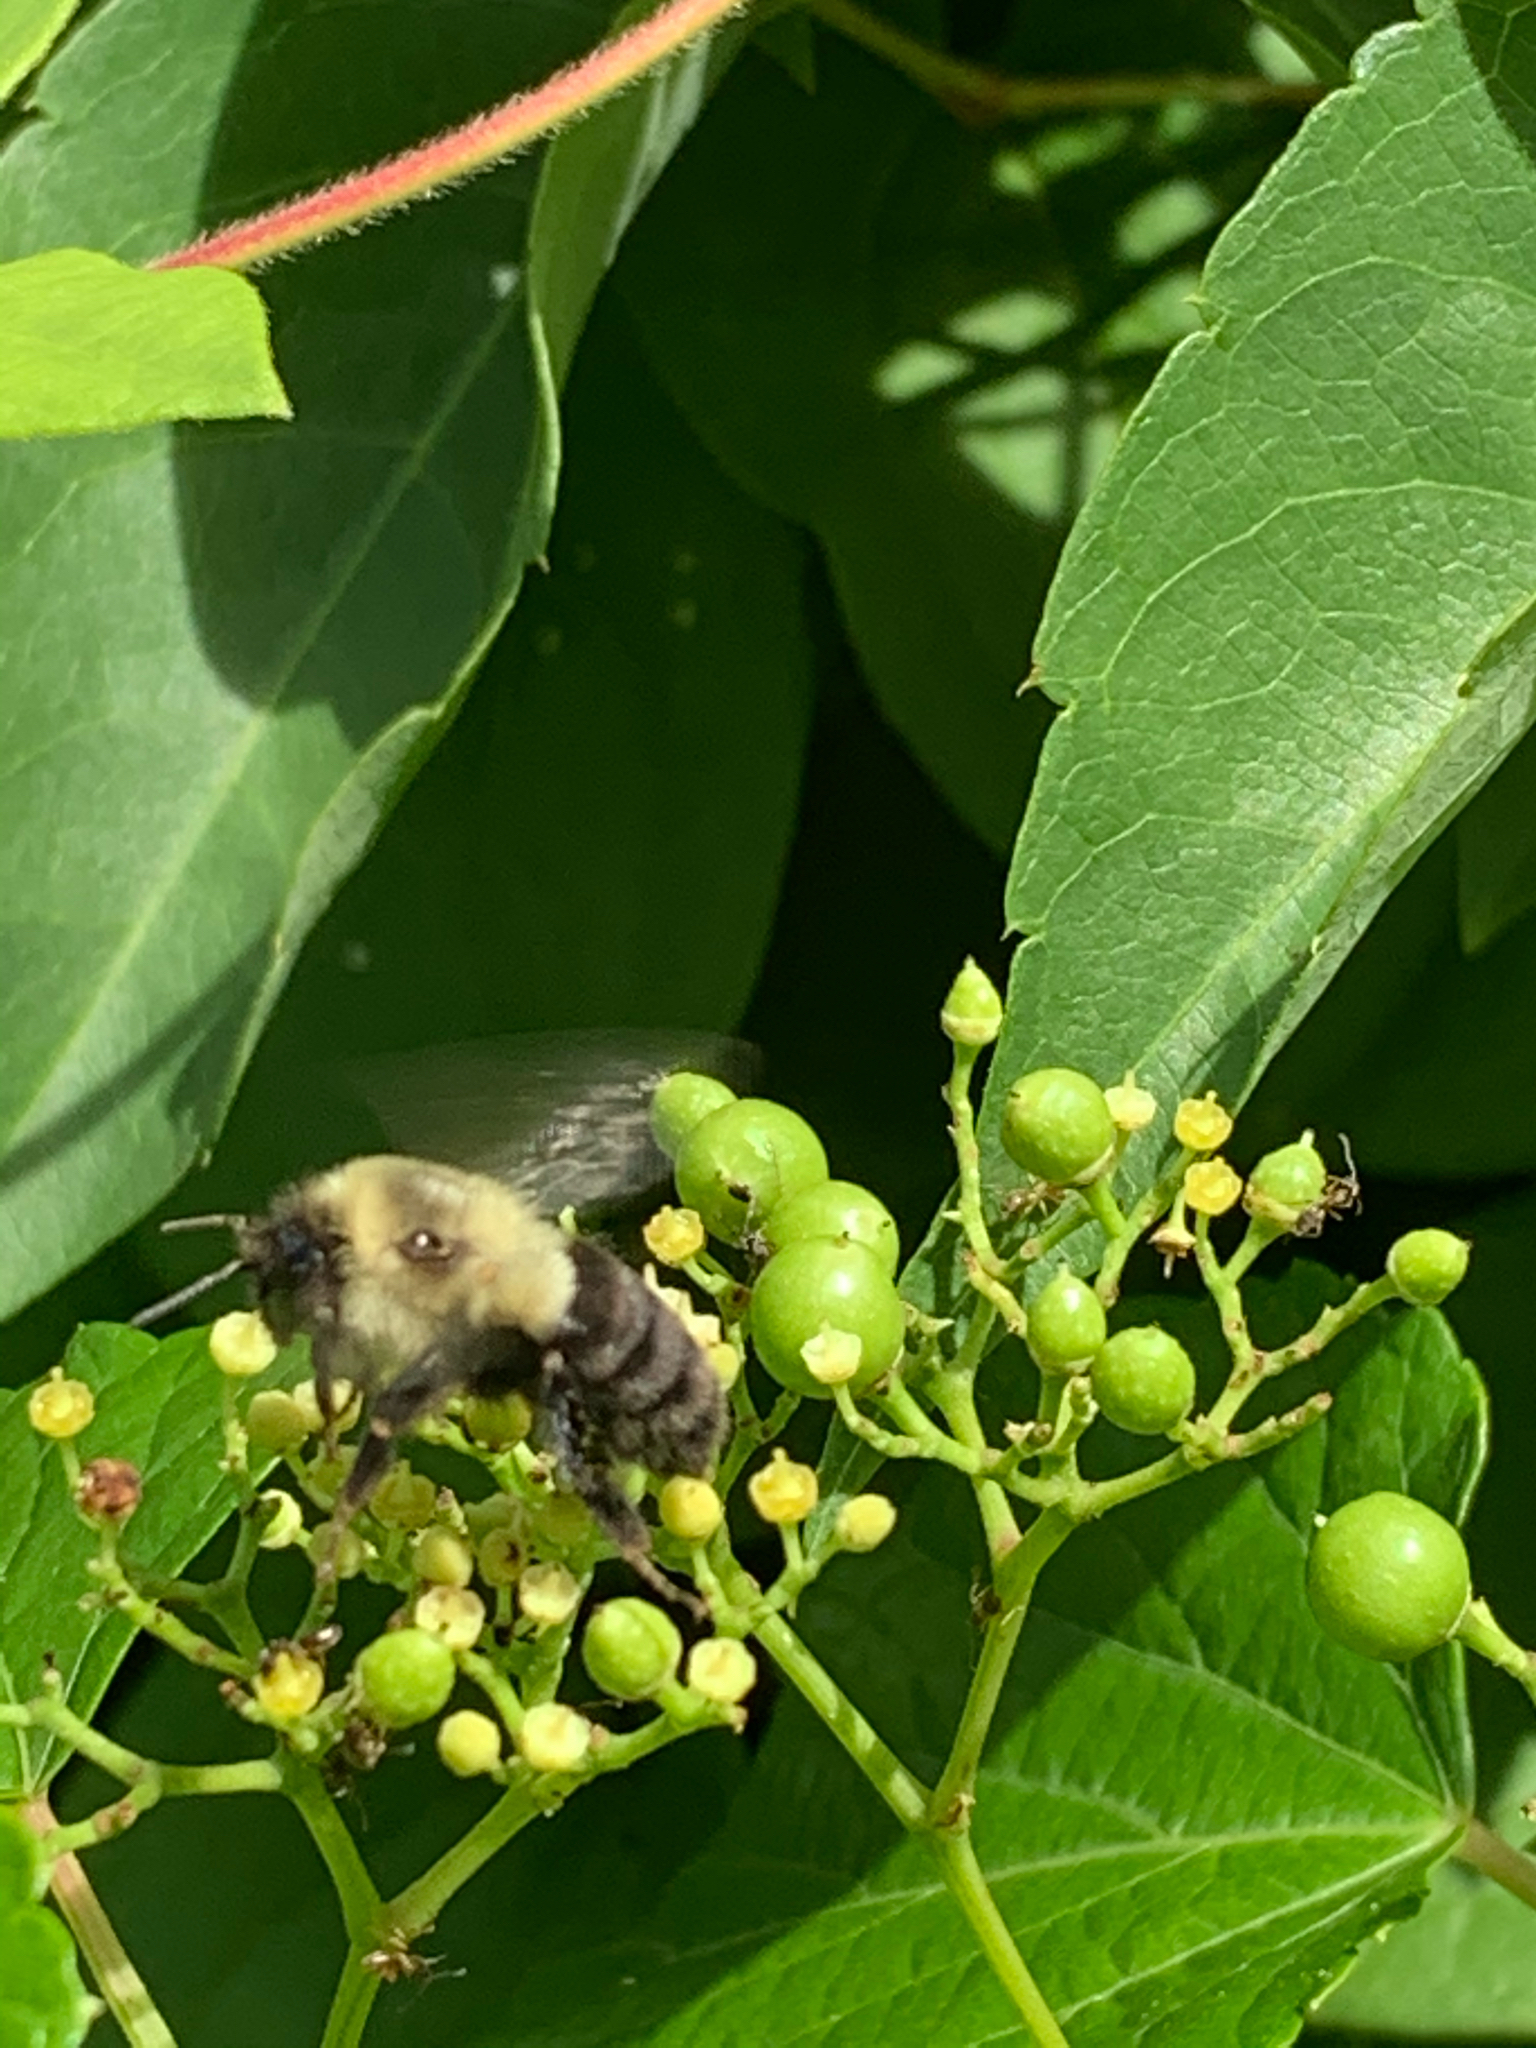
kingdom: Animalia
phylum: Arthropoda
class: Insecta
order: Hymenoptera
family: Apidae
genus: Bombus
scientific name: Bombus impatiens
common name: Common eastern bumble bee
